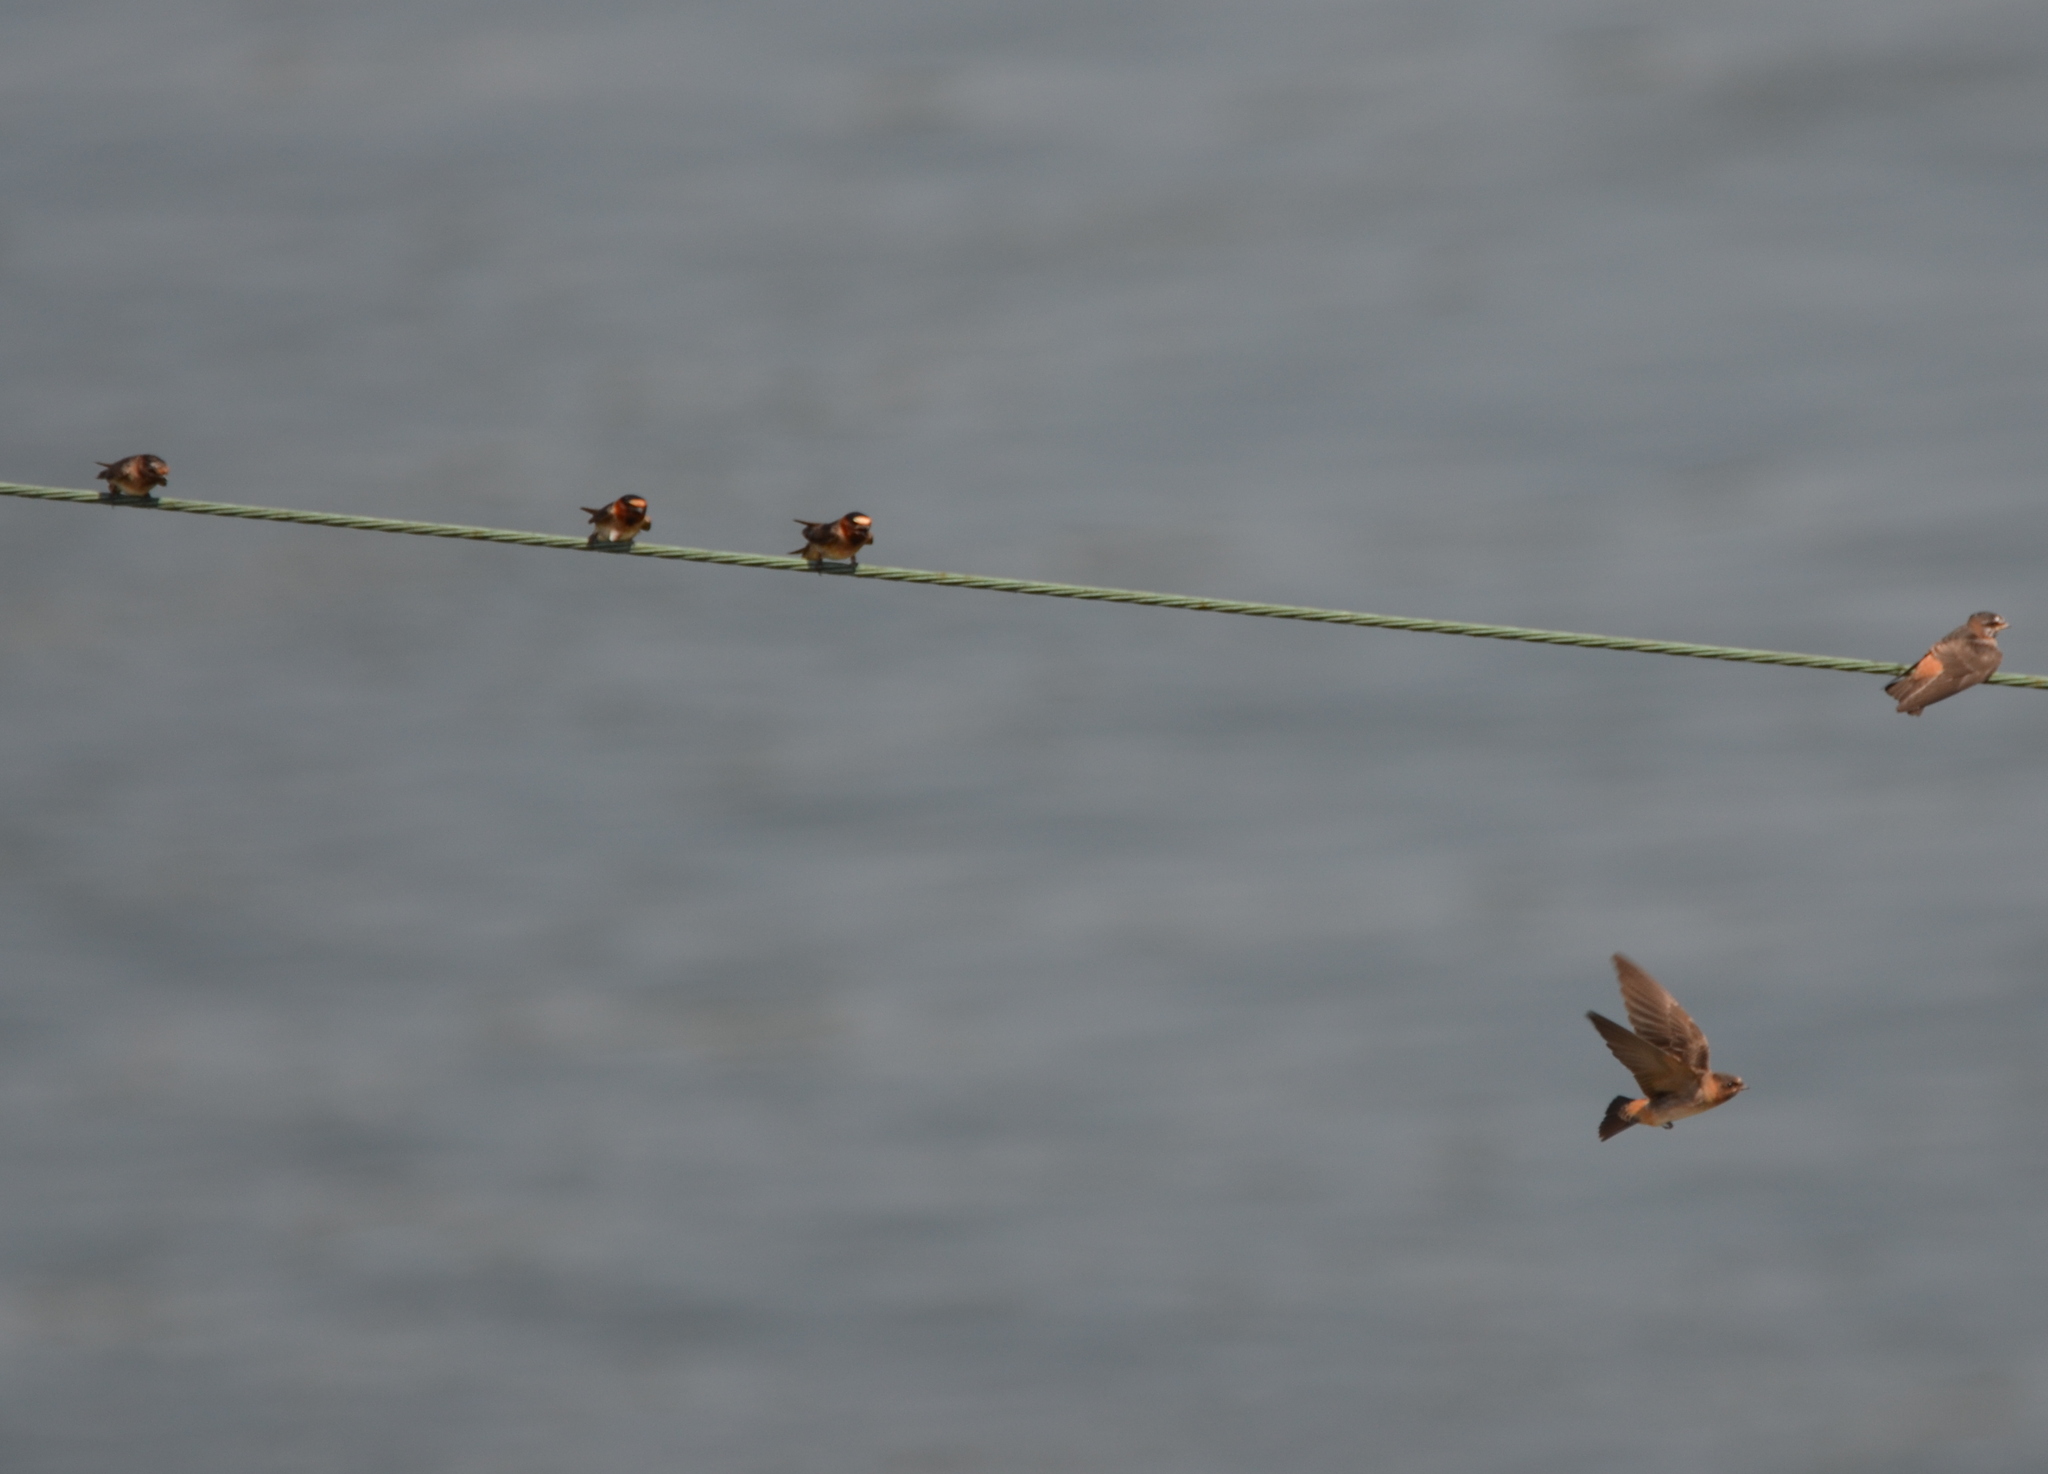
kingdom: Animalia
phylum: Chordata
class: Aves
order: Passeriformes
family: Hirundinidae
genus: Petrochelidon
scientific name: Petrochelidon pyrrhonota
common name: American cliff swallow
